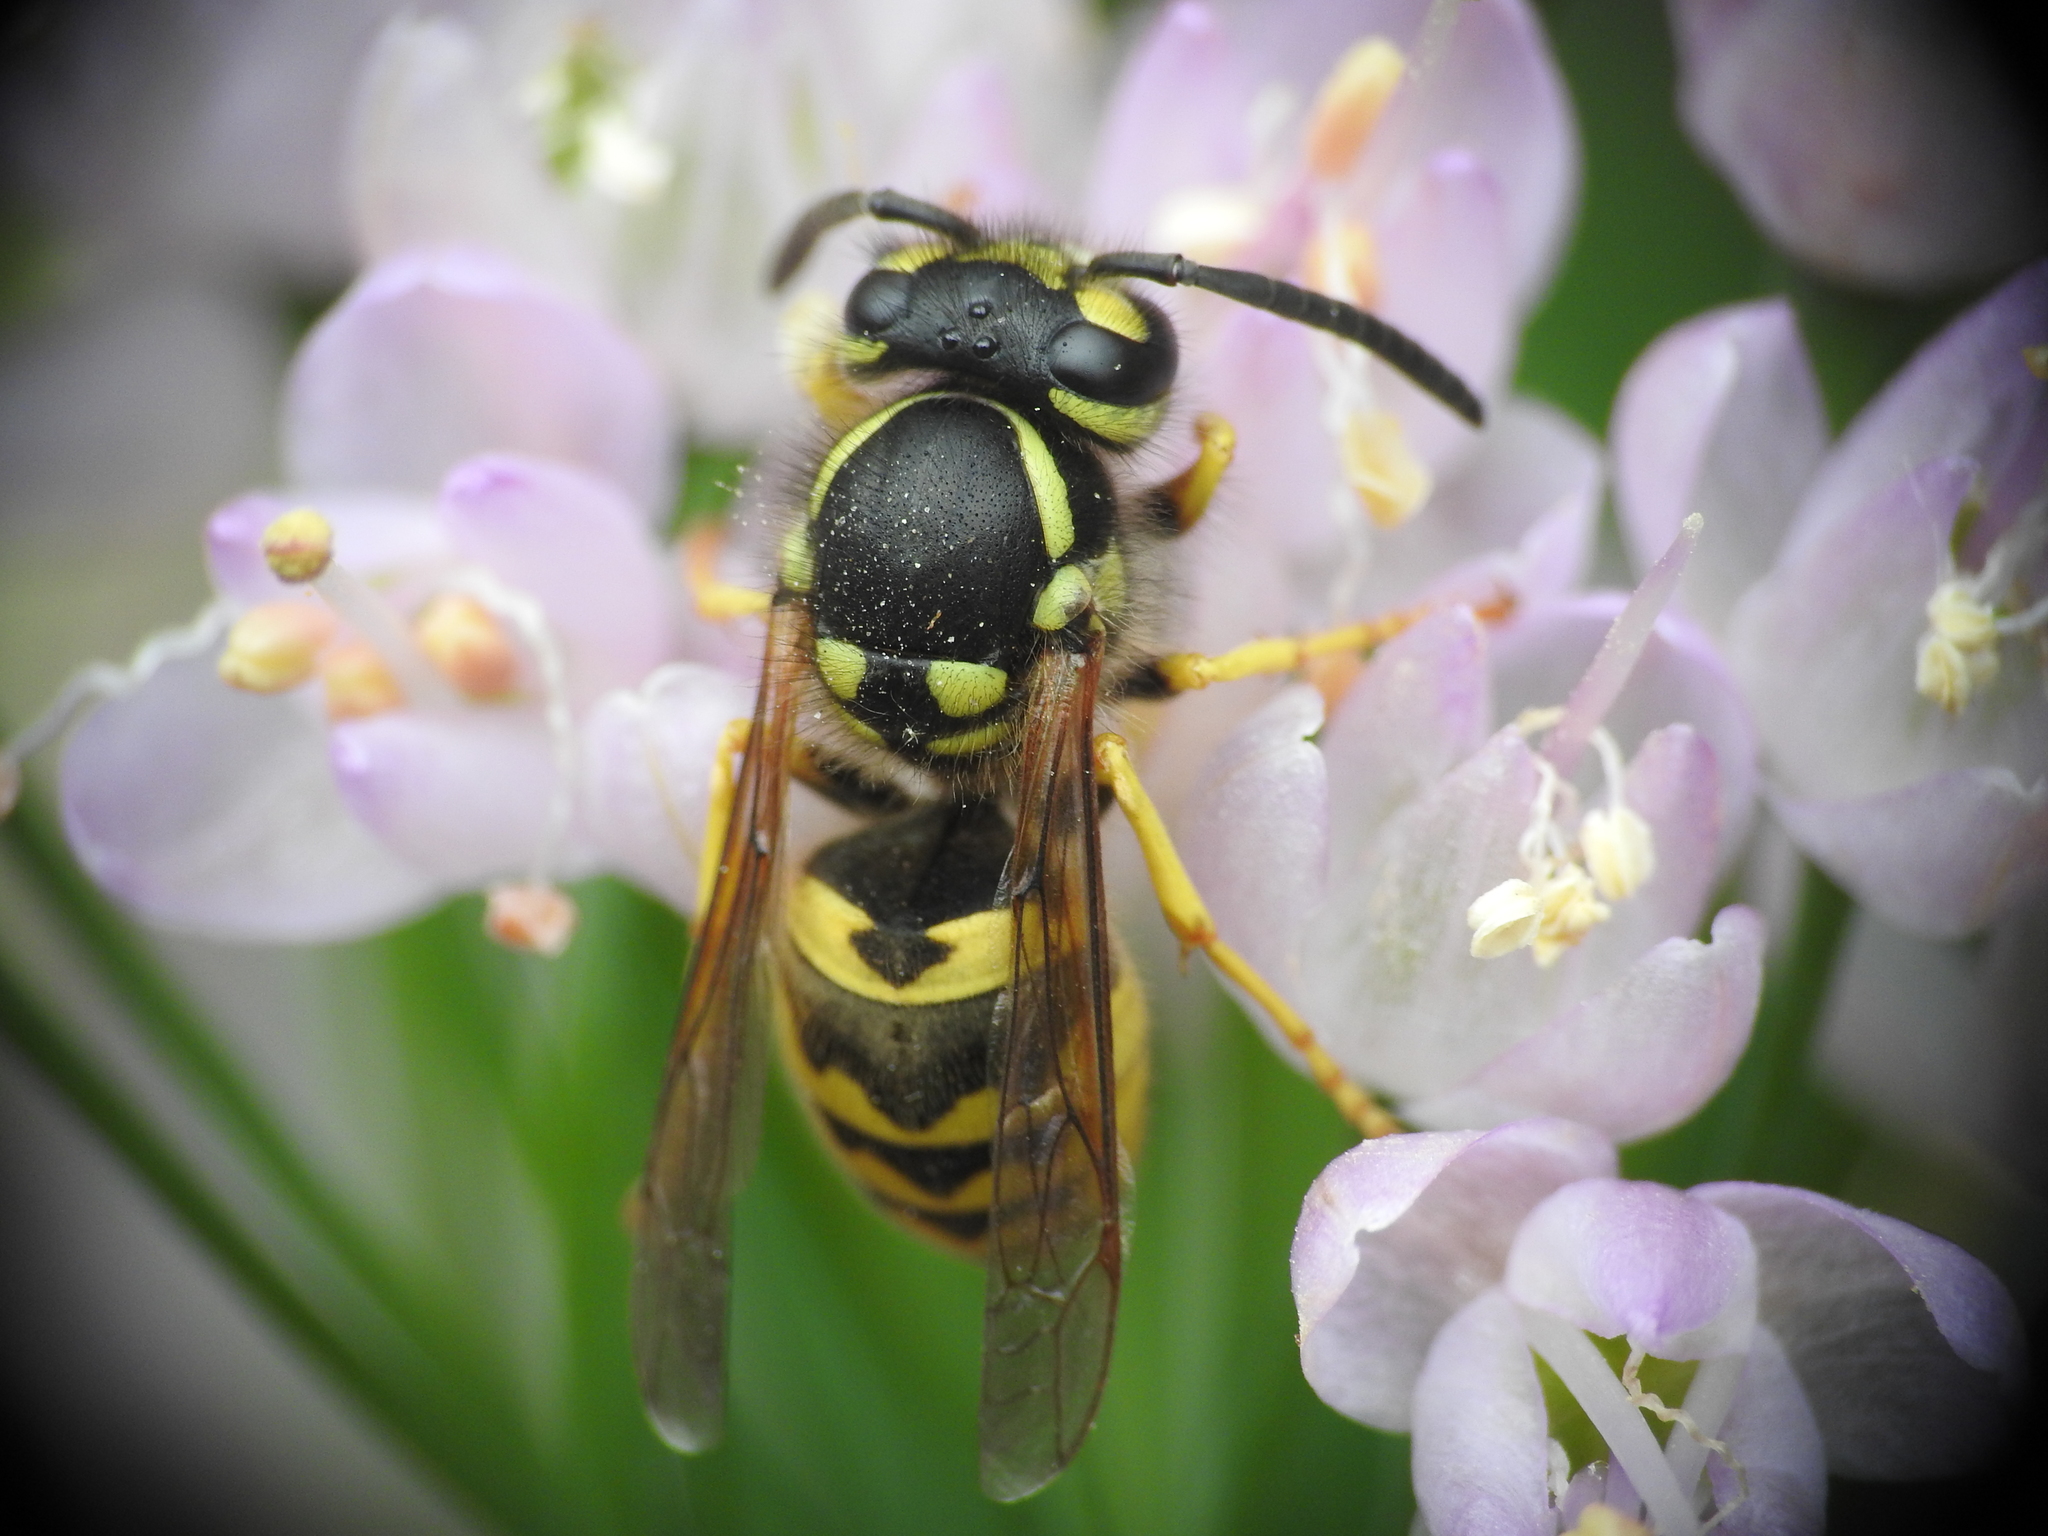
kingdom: Animalia
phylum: Arthropoda
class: Insecta
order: Hymenoptera
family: Vespidae
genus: Vespula
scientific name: Vespula germanica
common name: German wasp
